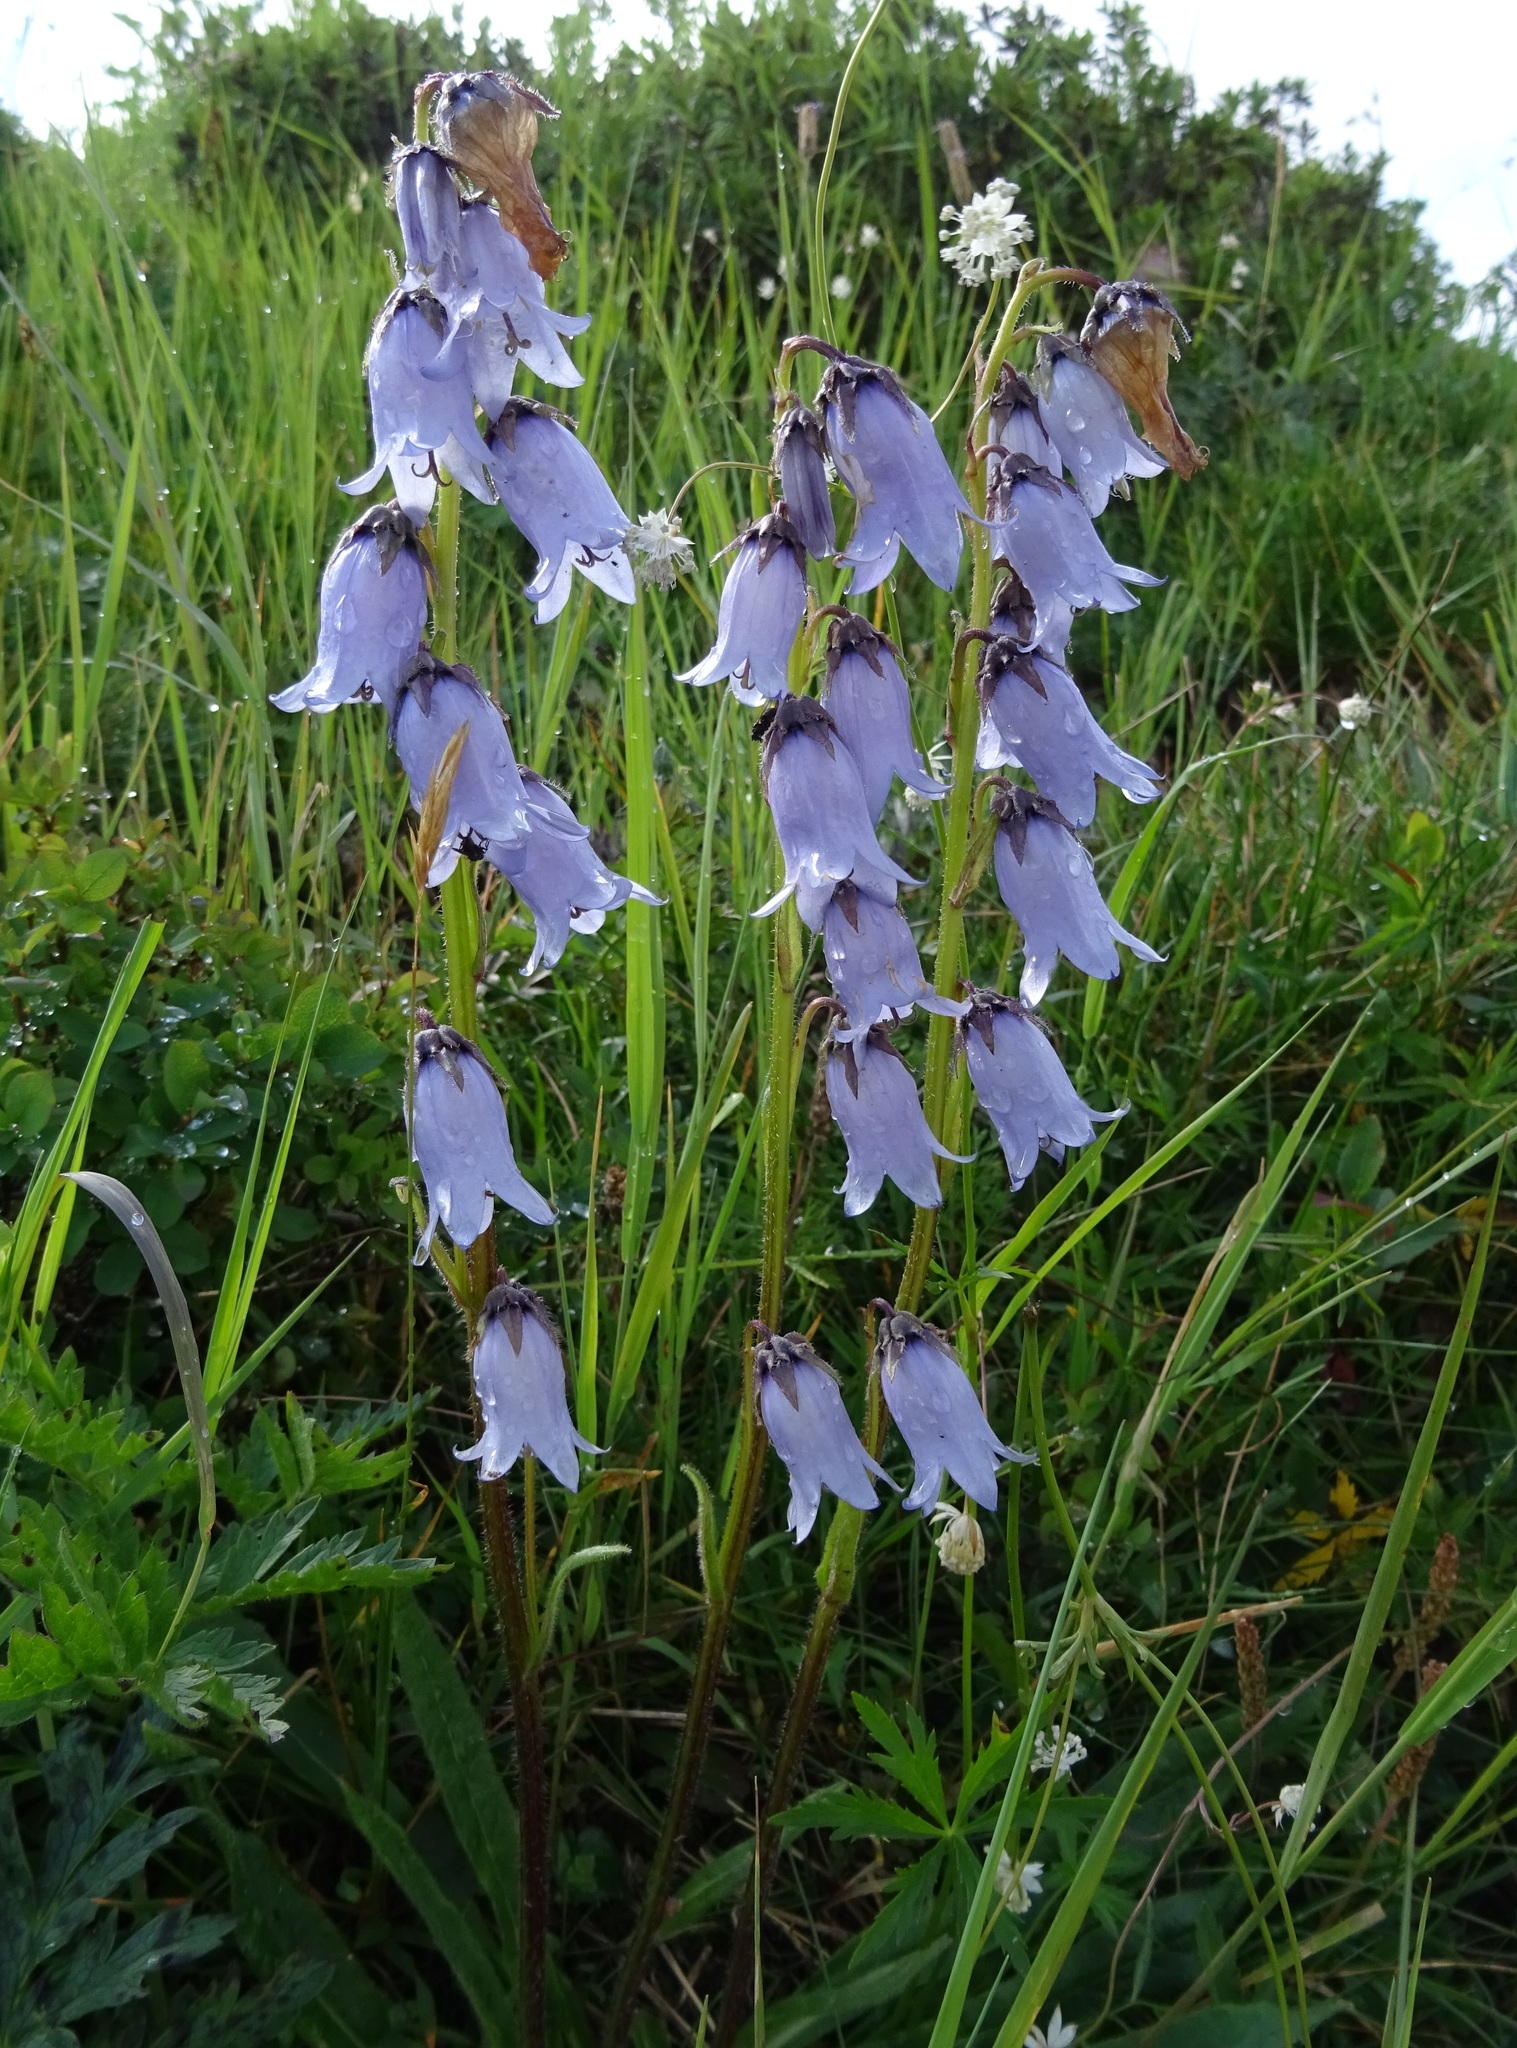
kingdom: Plantae
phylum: Tracheophyta
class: Magnoliopsida
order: Asterales
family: Campanulaceae
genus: Campanula
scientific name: Campanula barbata
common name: Bearded bellflower
